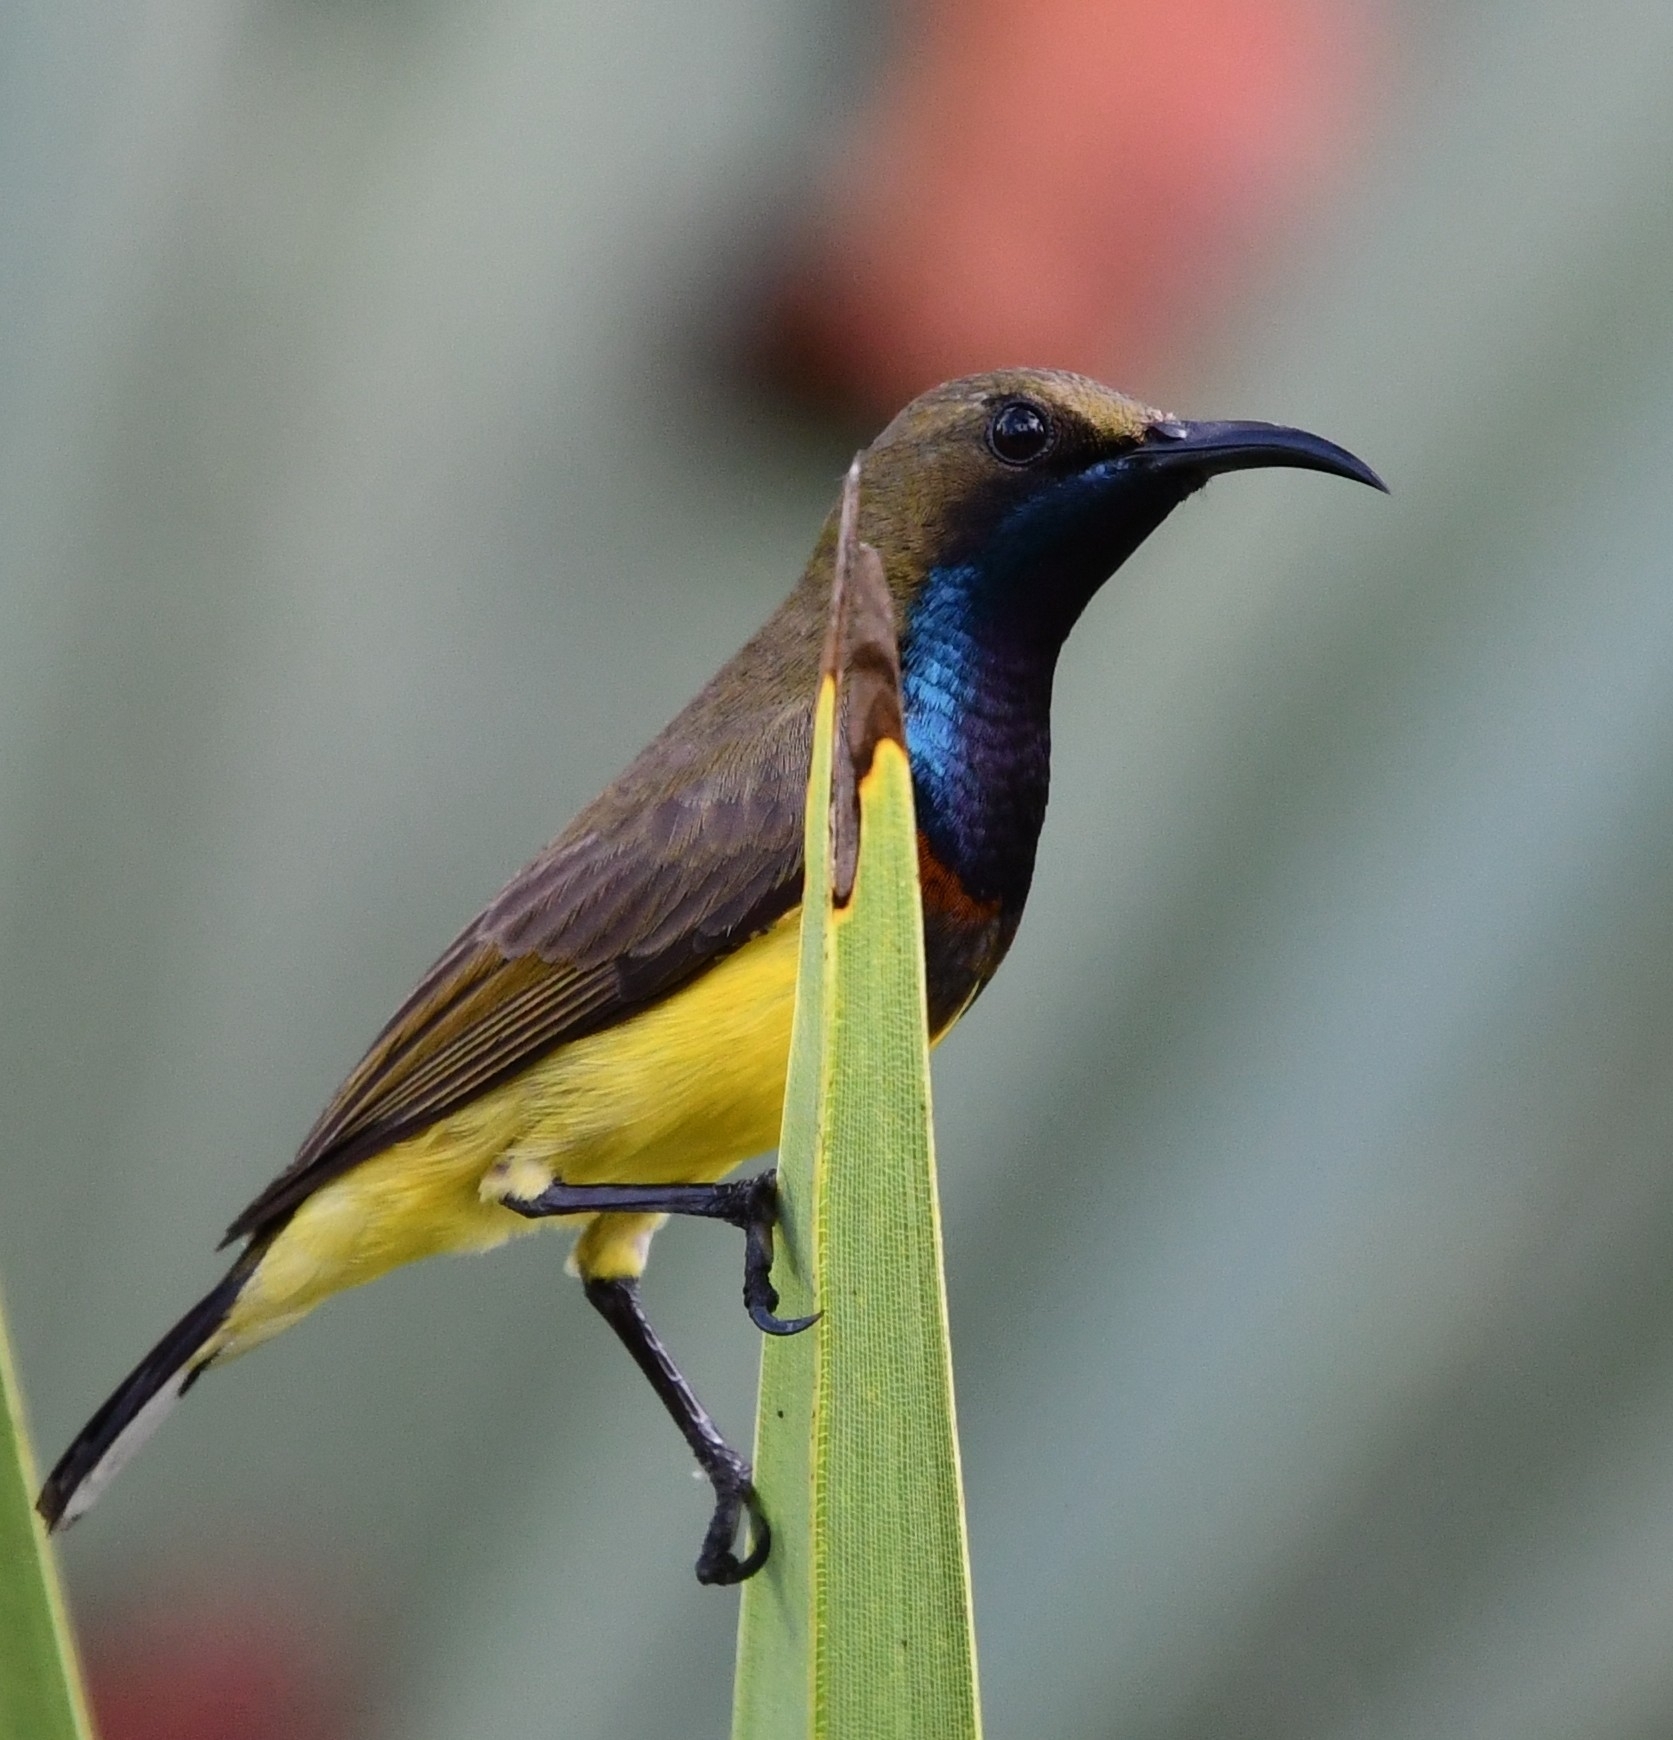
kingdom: Animalia
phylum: Chordata
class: Aves
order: Passeriformes
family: Nectariniidae
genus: Cinnyris
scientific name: Cinnyris
